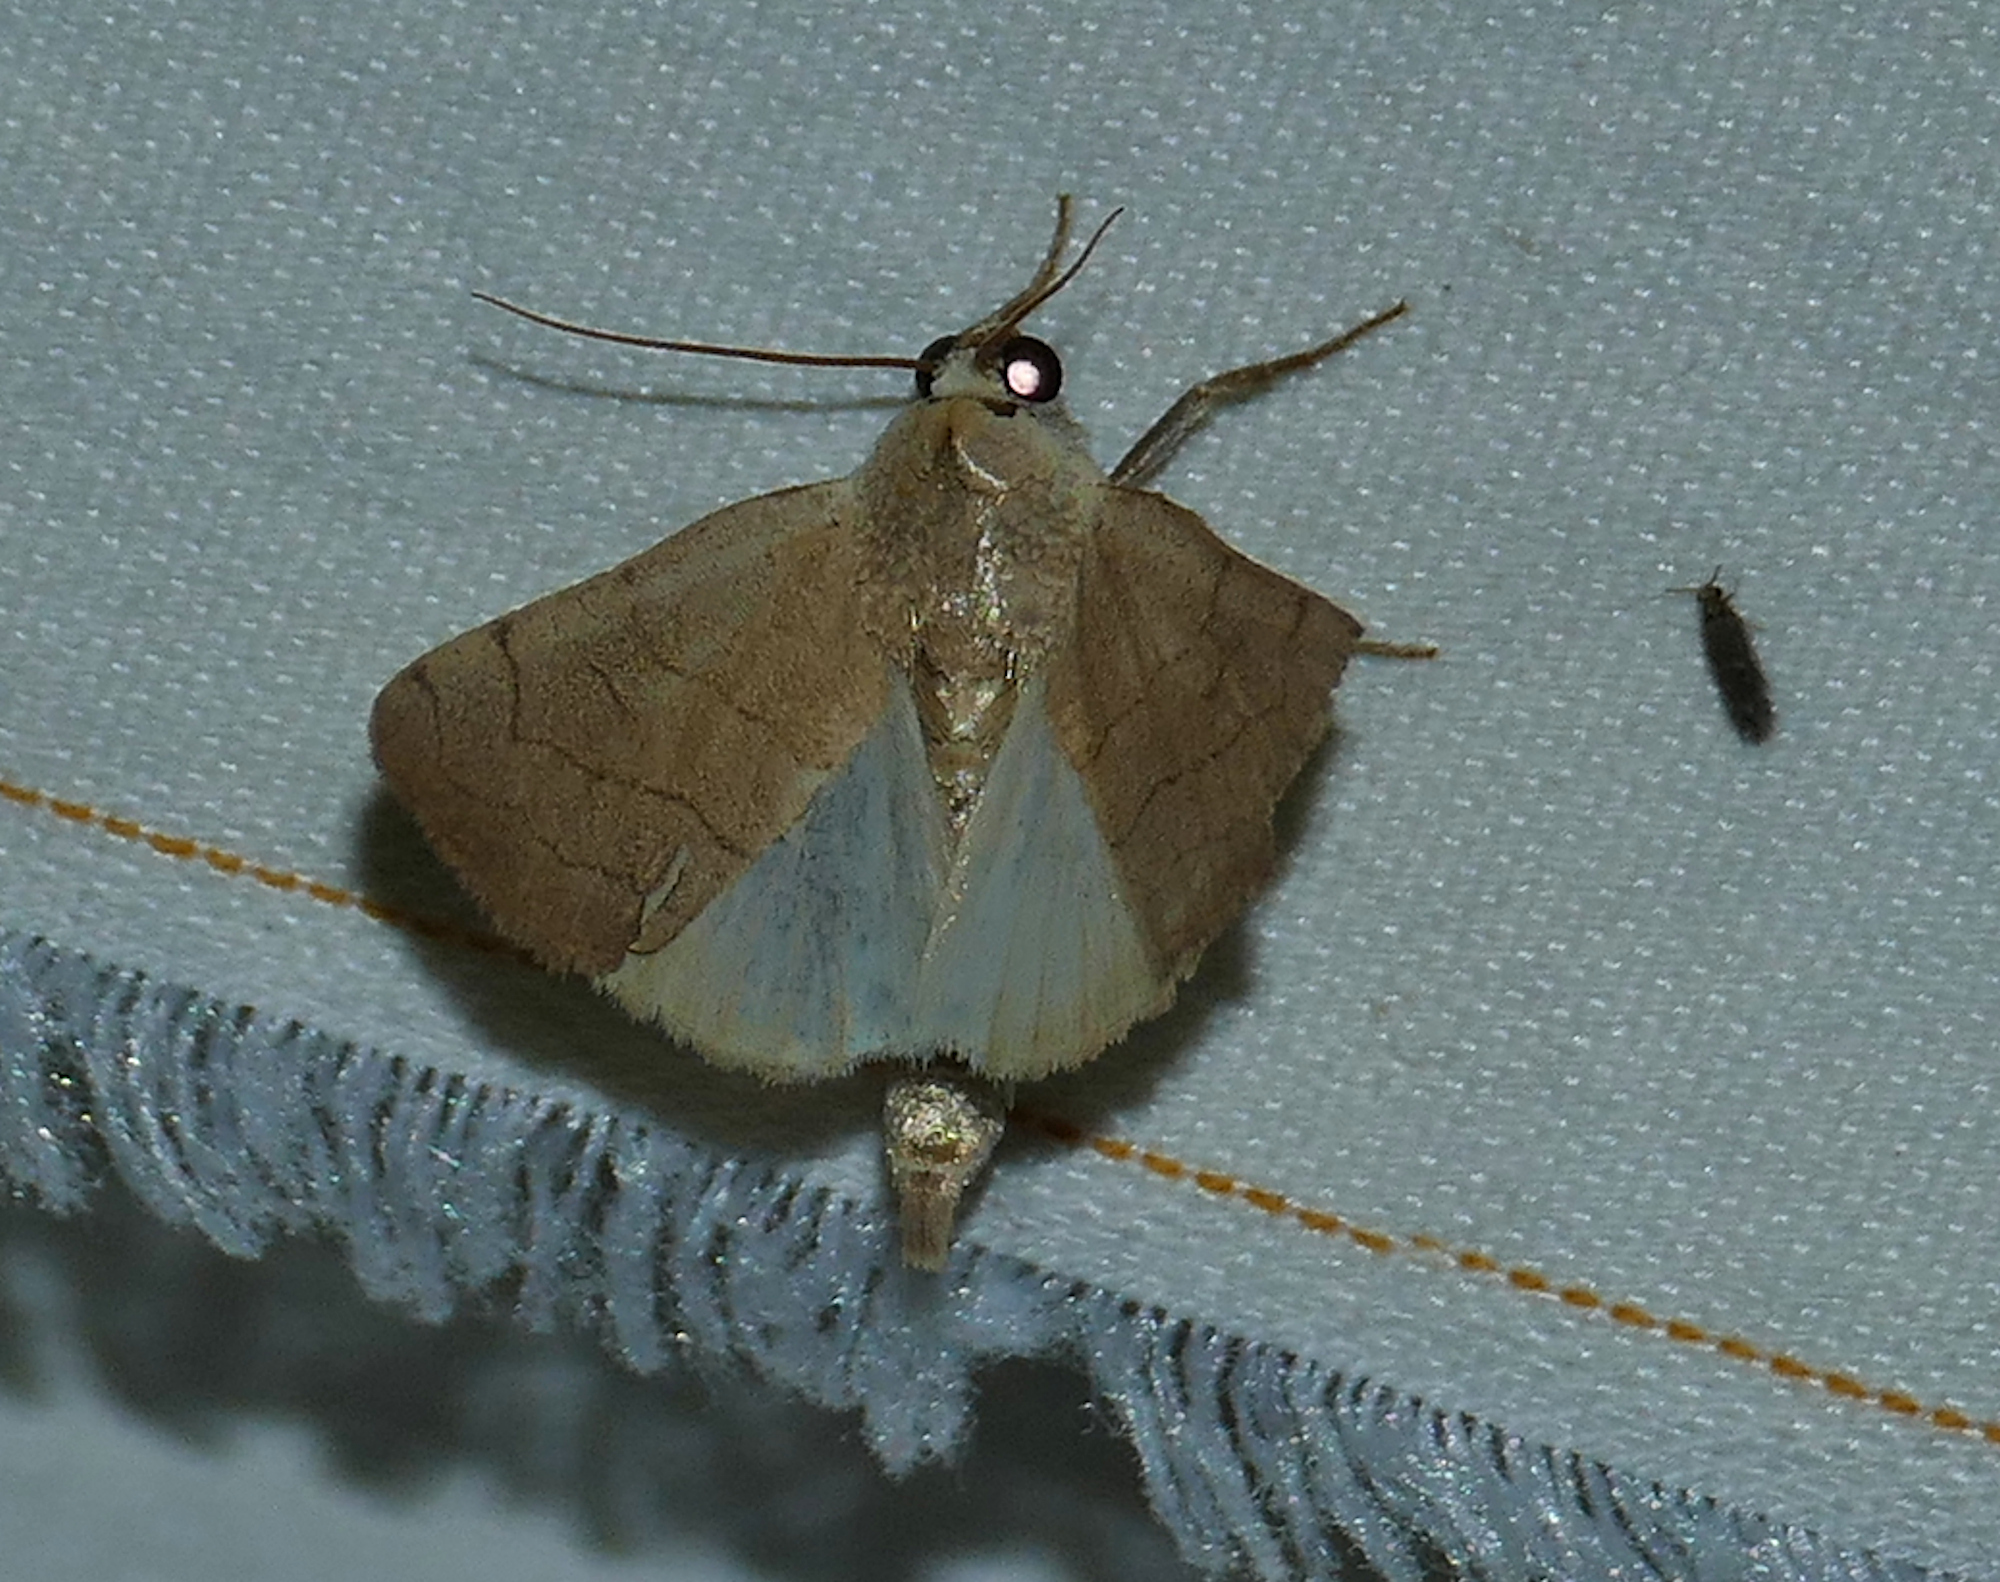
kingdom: Animalia
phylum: Arthropoda
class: Insecta
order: Lepidoptera
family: Noctuidae
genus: Bagisara
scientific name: Bagisara buxea
